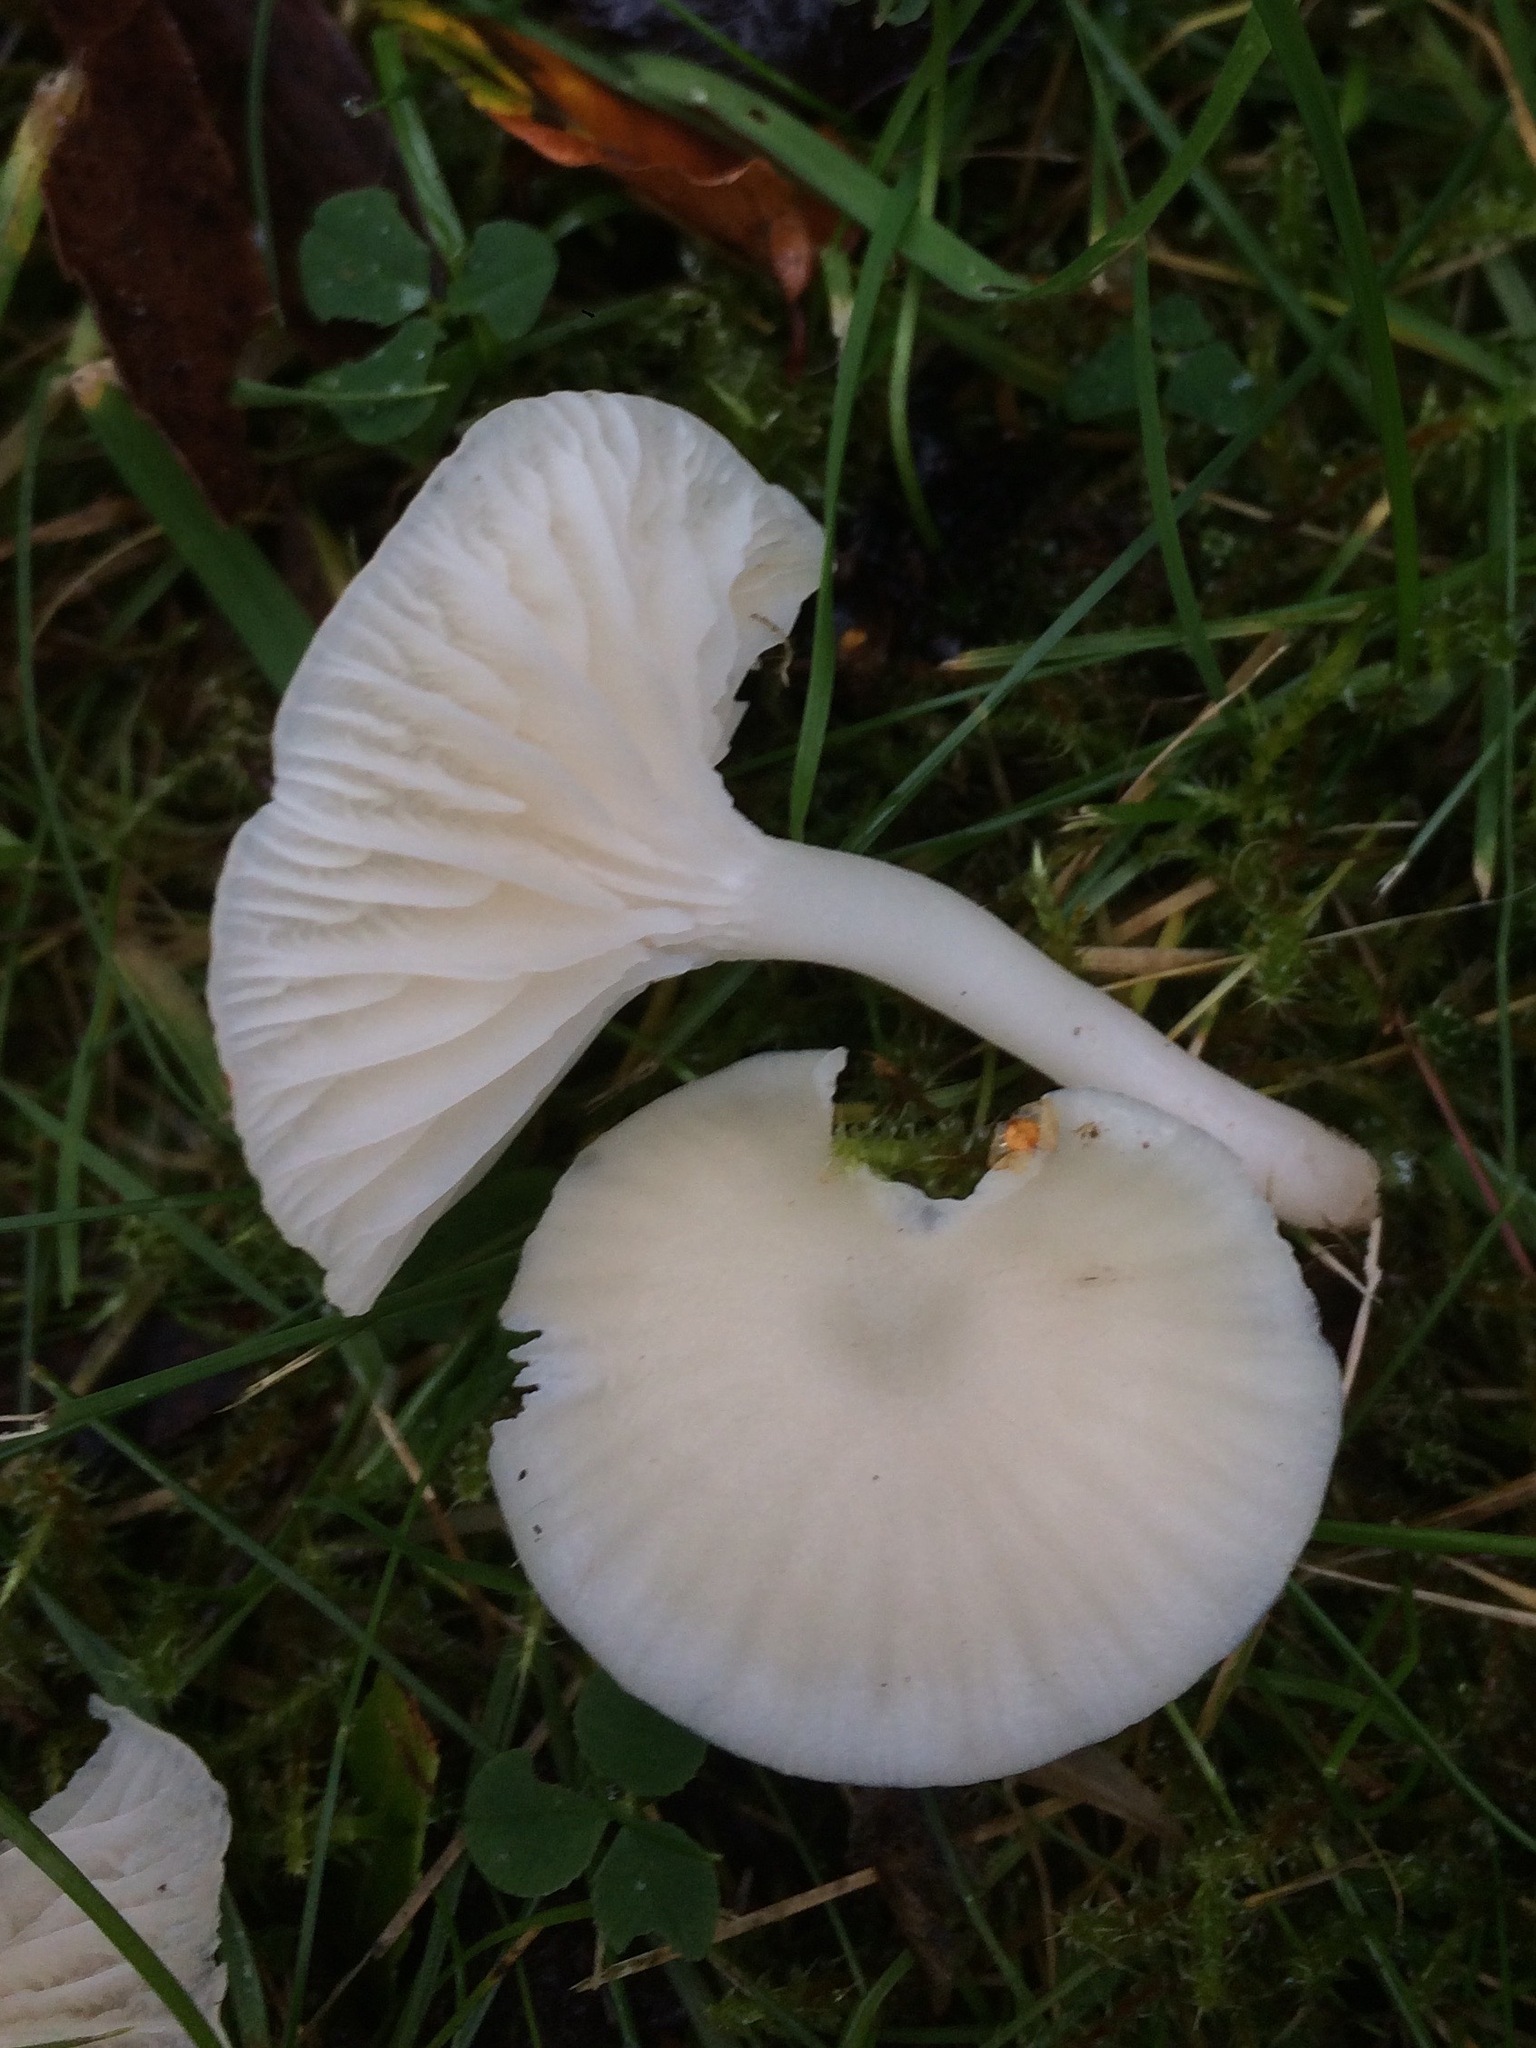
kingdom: Fungi
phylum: Basidiomycota
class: Agaricomycetes
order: Agaricales
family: Hygrophoraceae
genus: Cuphophyllus
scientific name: Cuphophyllus virgineus
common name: Snowy waxcap
